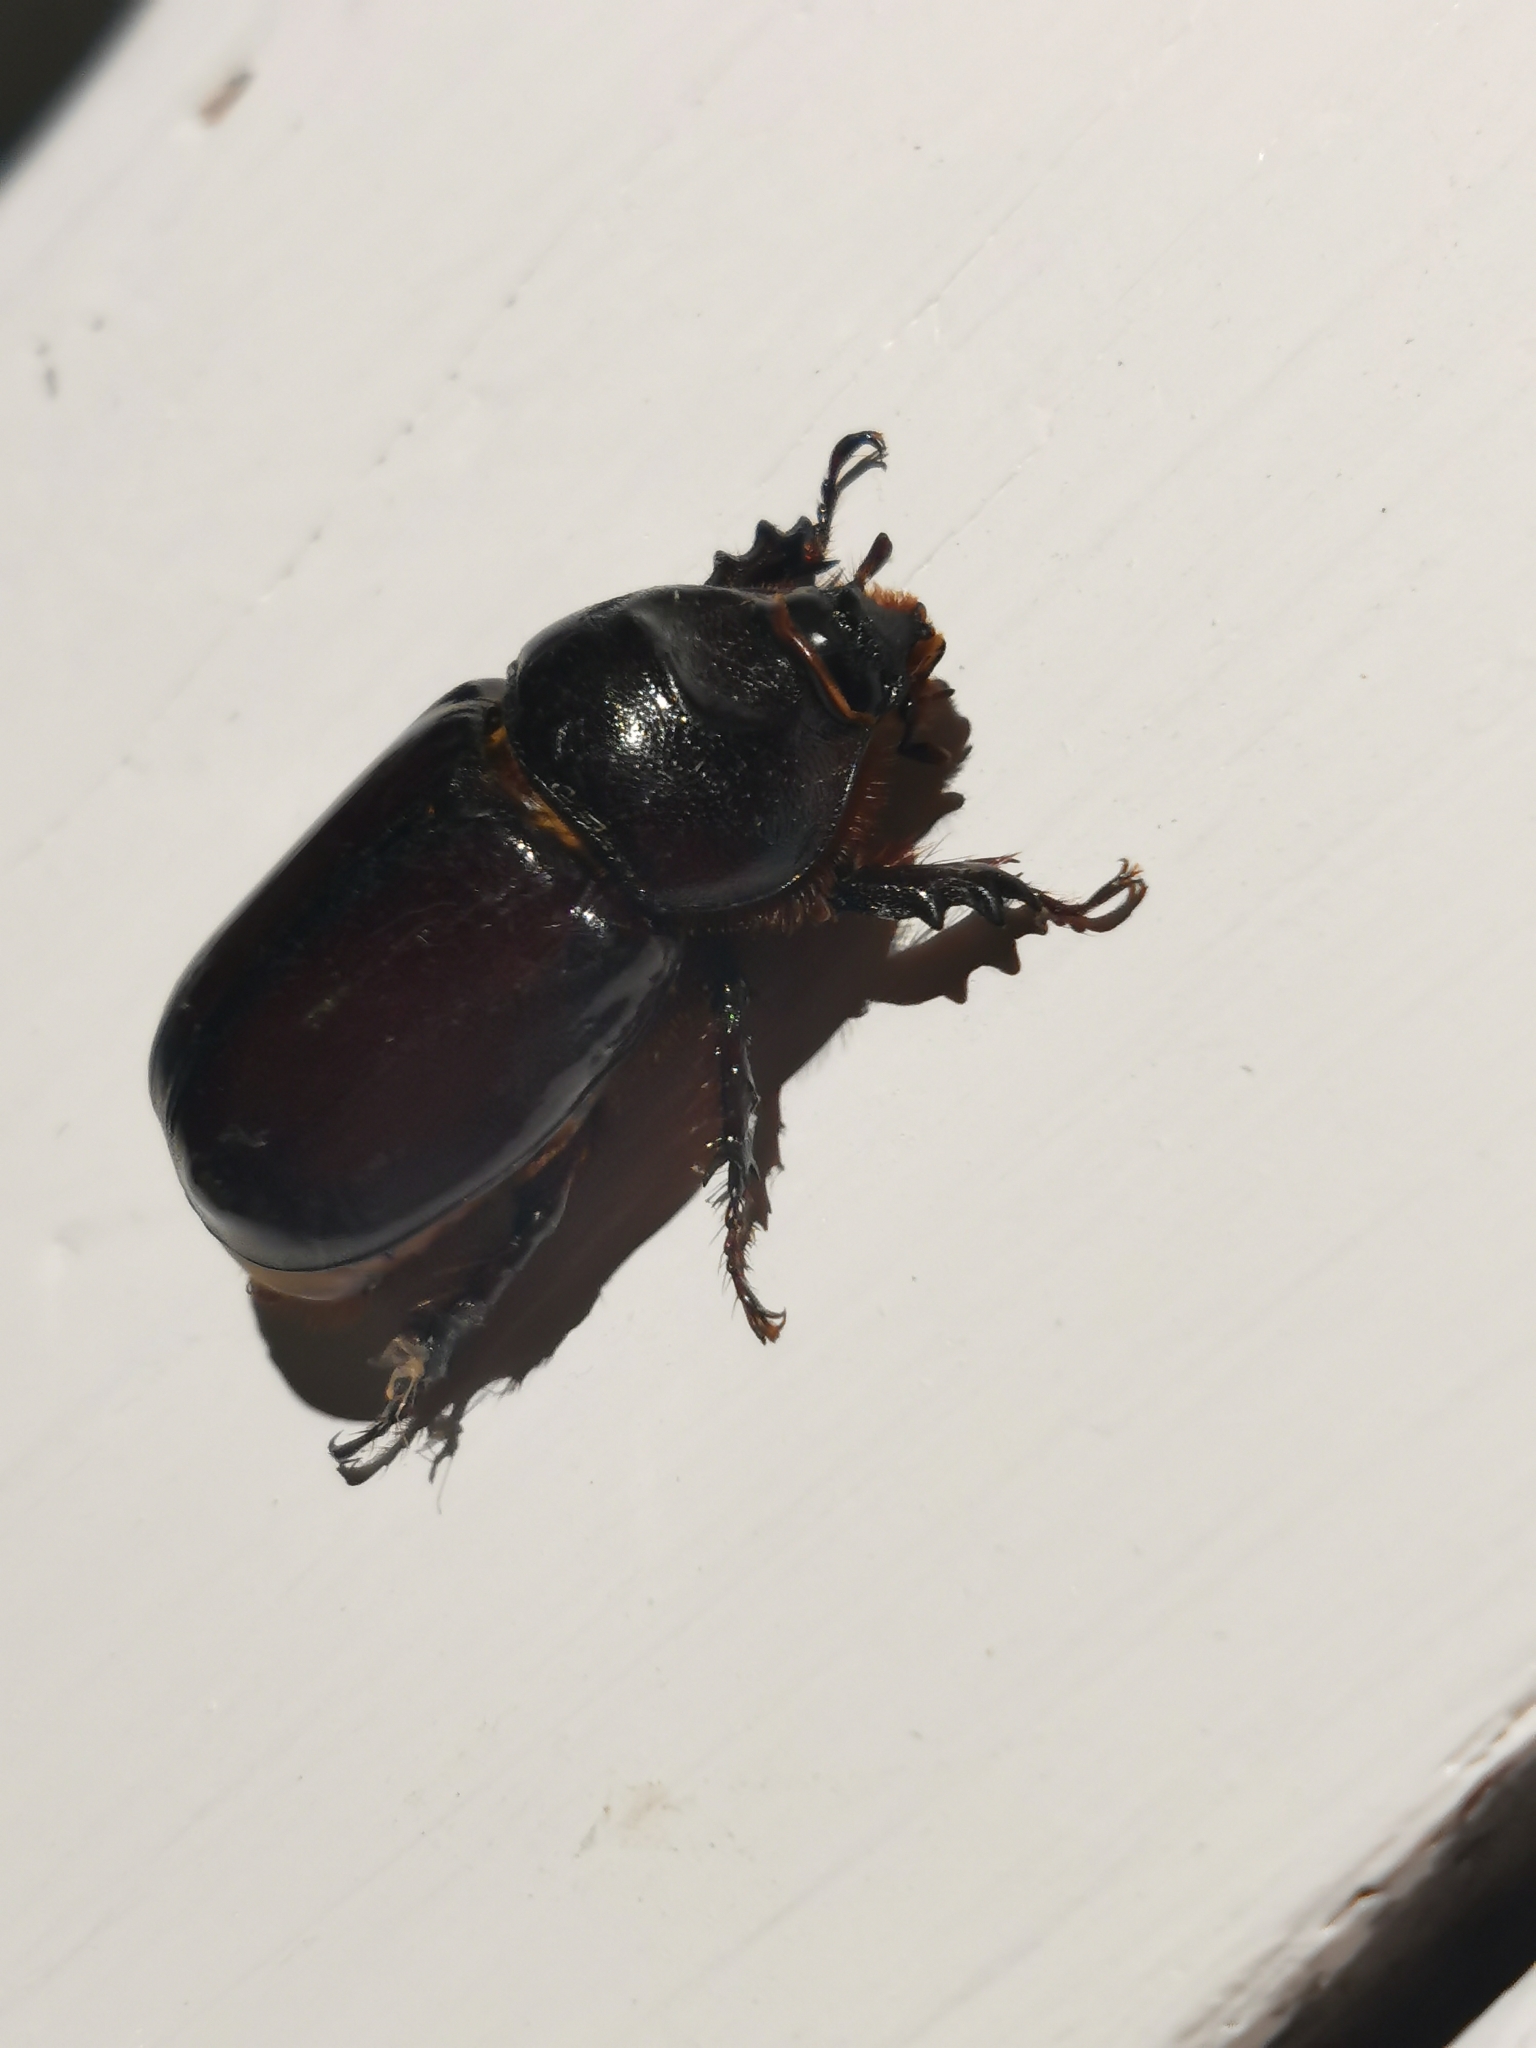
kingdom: Animalia
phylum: Arthropoda
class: Insecta
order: Coleoptera
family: Scarabaeidae
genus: Oryctes
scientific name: Oryctes nasicornis
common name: European rhinoceros beetle
